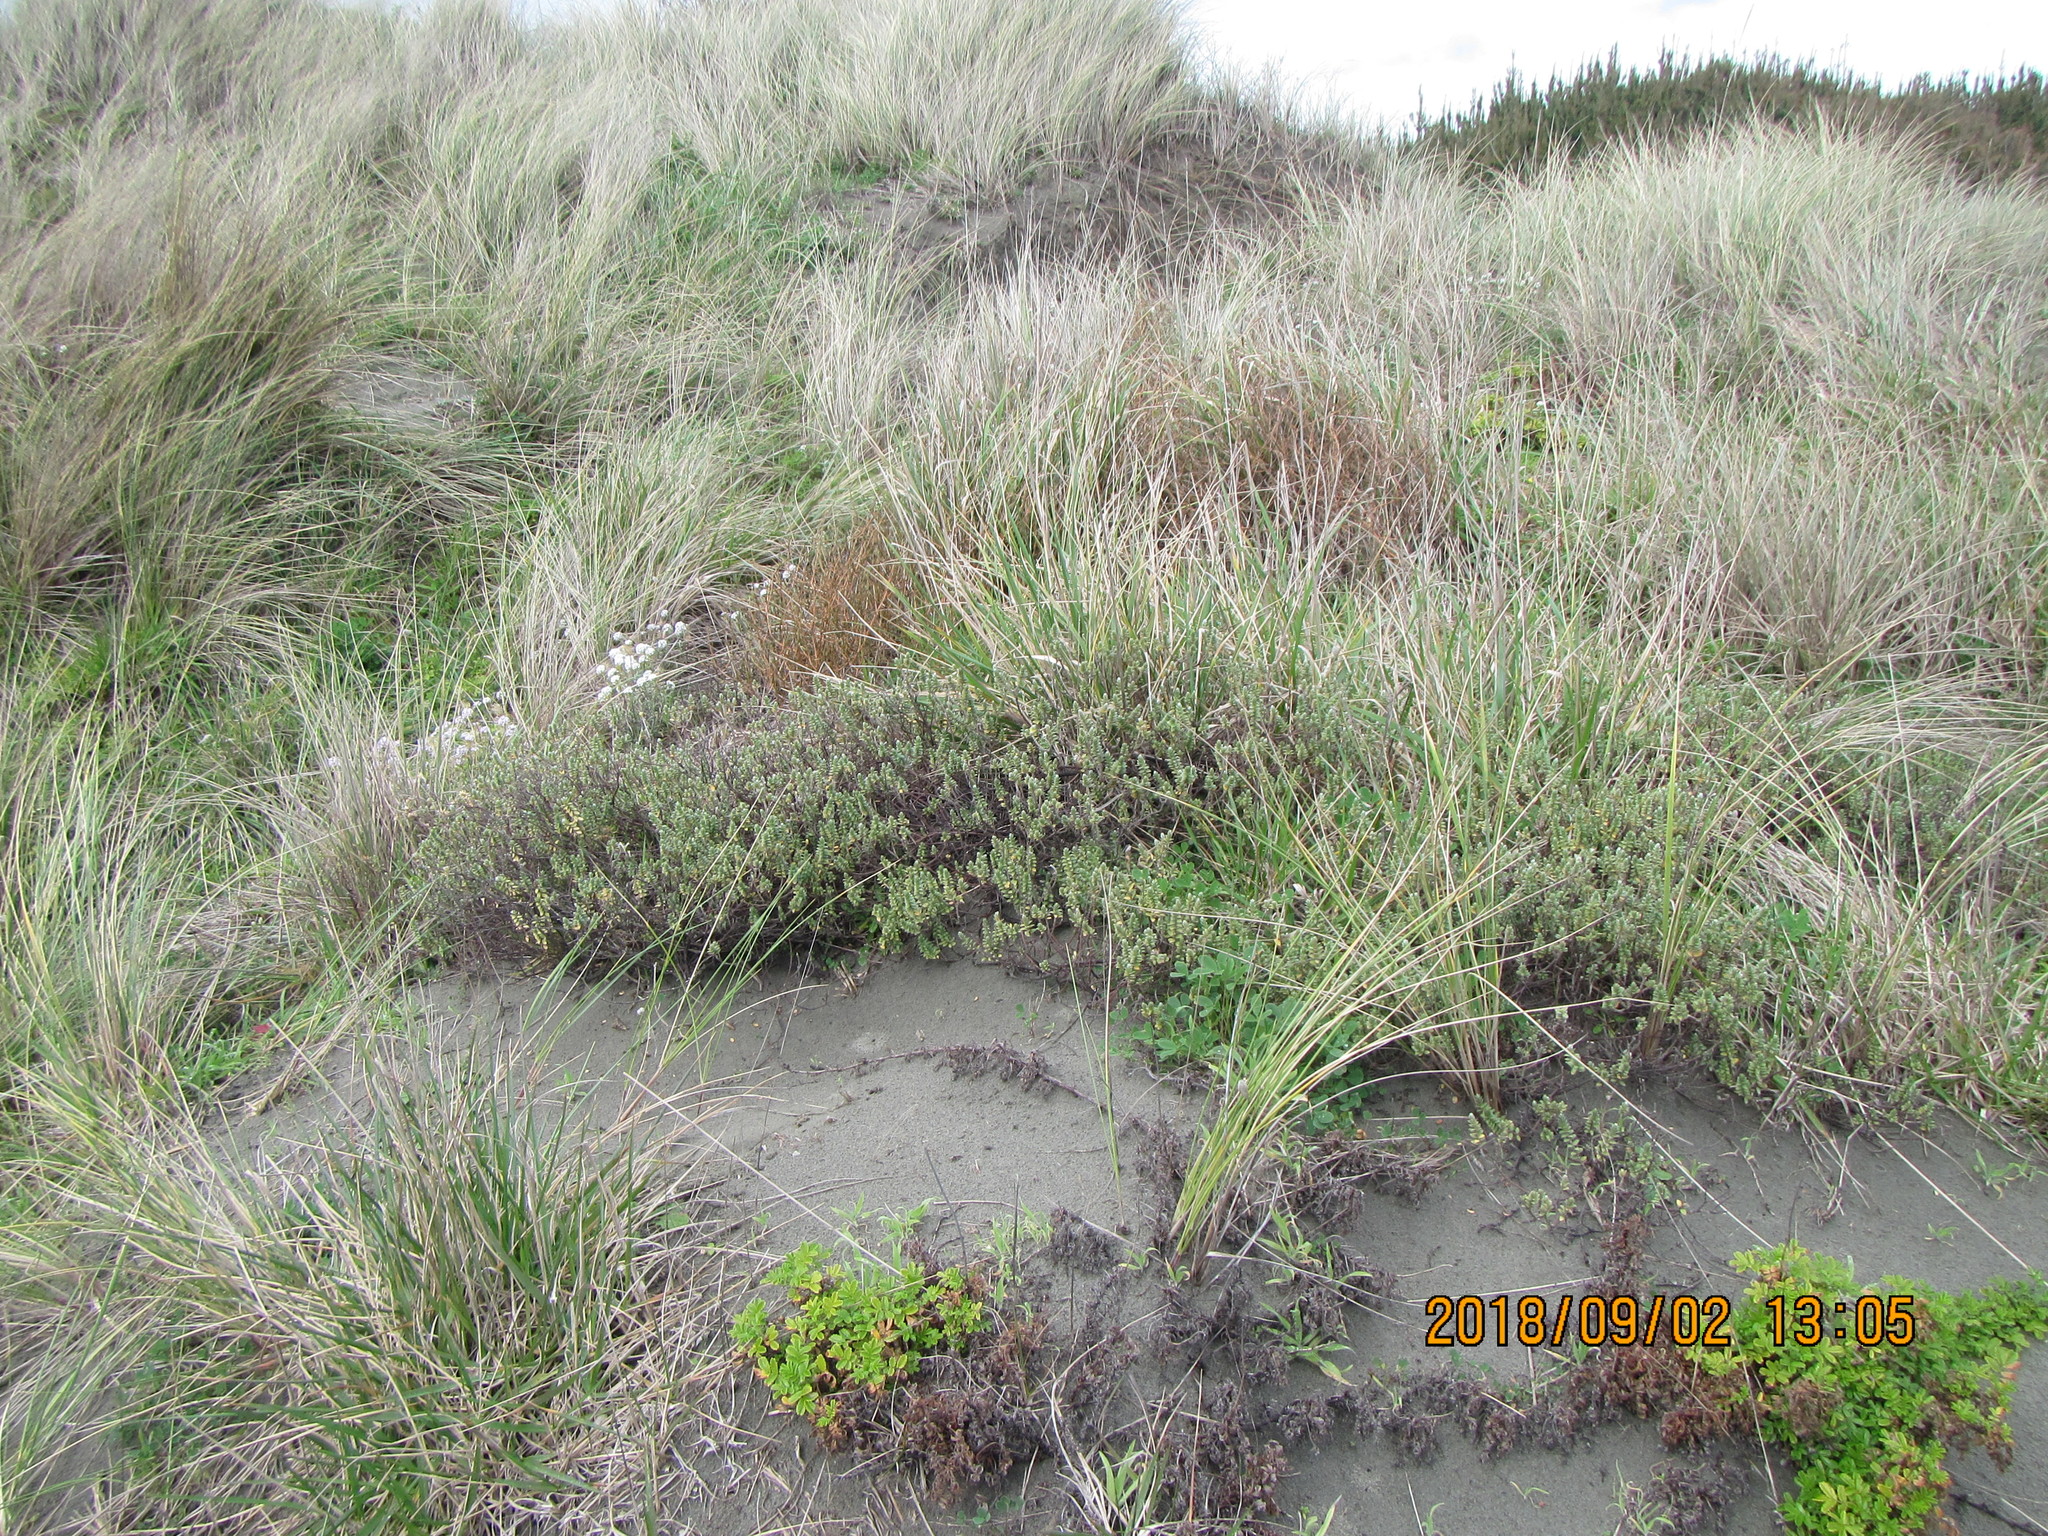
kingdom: Plantae
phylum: Tracheophyta
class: Magnoliopsida
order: Malvales
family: Thymelaeaceae
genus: Pimelea
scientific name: Pimelea villosa
